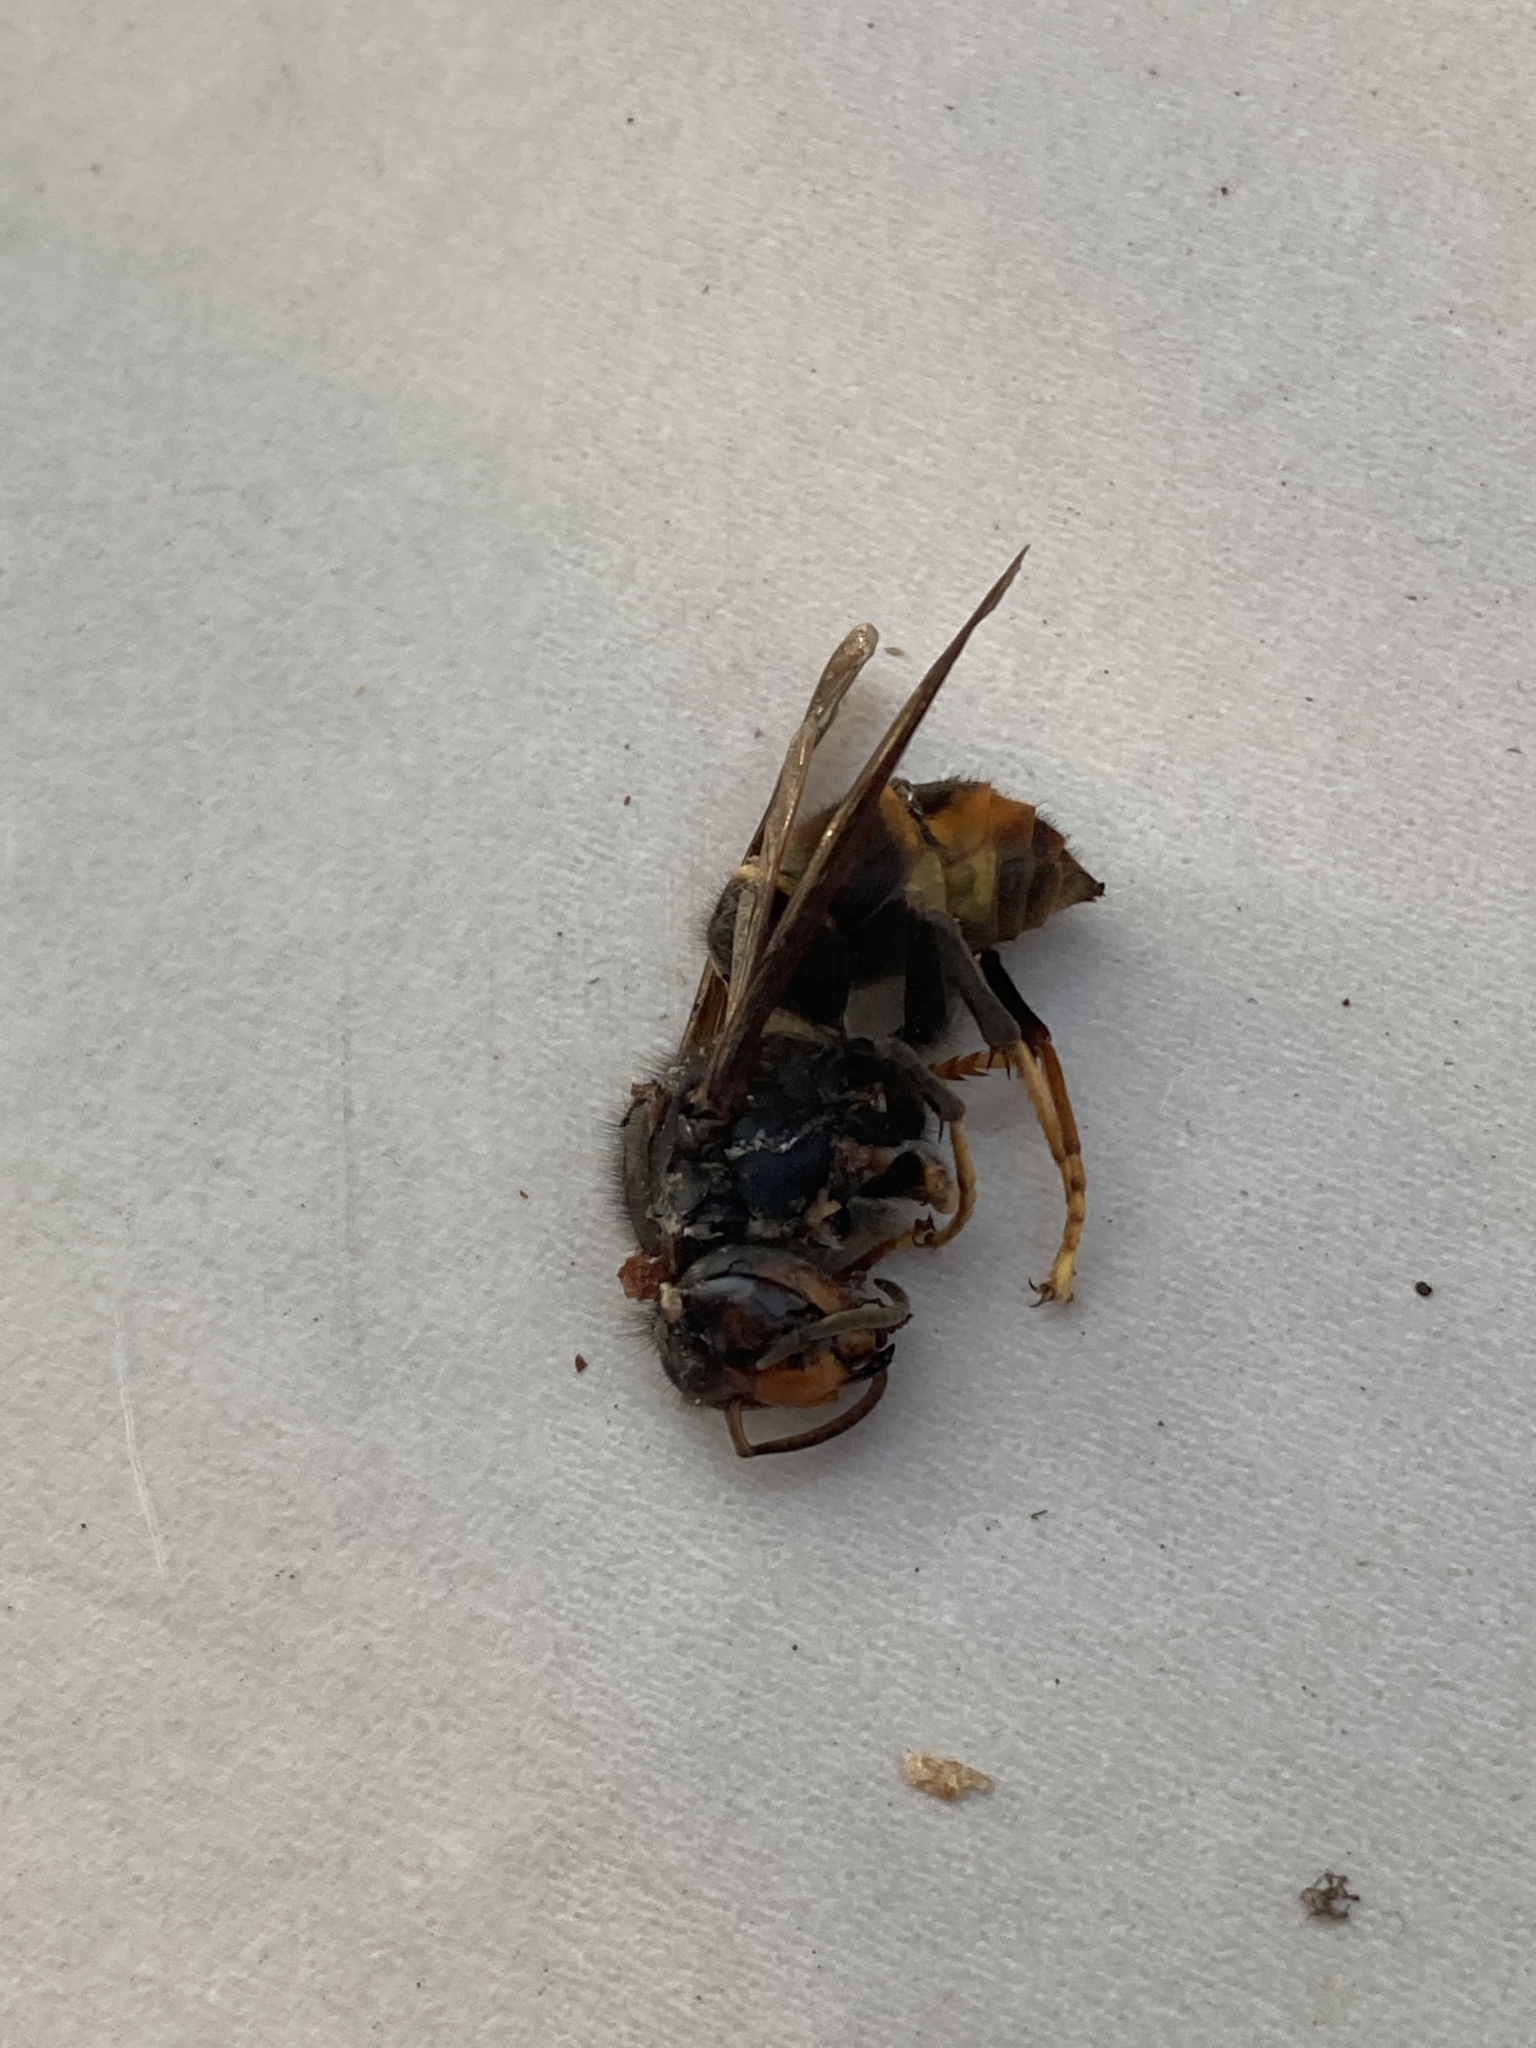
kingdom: Animalia
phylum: Arthropoda
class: Insecta
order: Hymenoptera
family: Vespidae
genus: Vespa
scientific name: Vespa velutina
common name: Asian hornet
